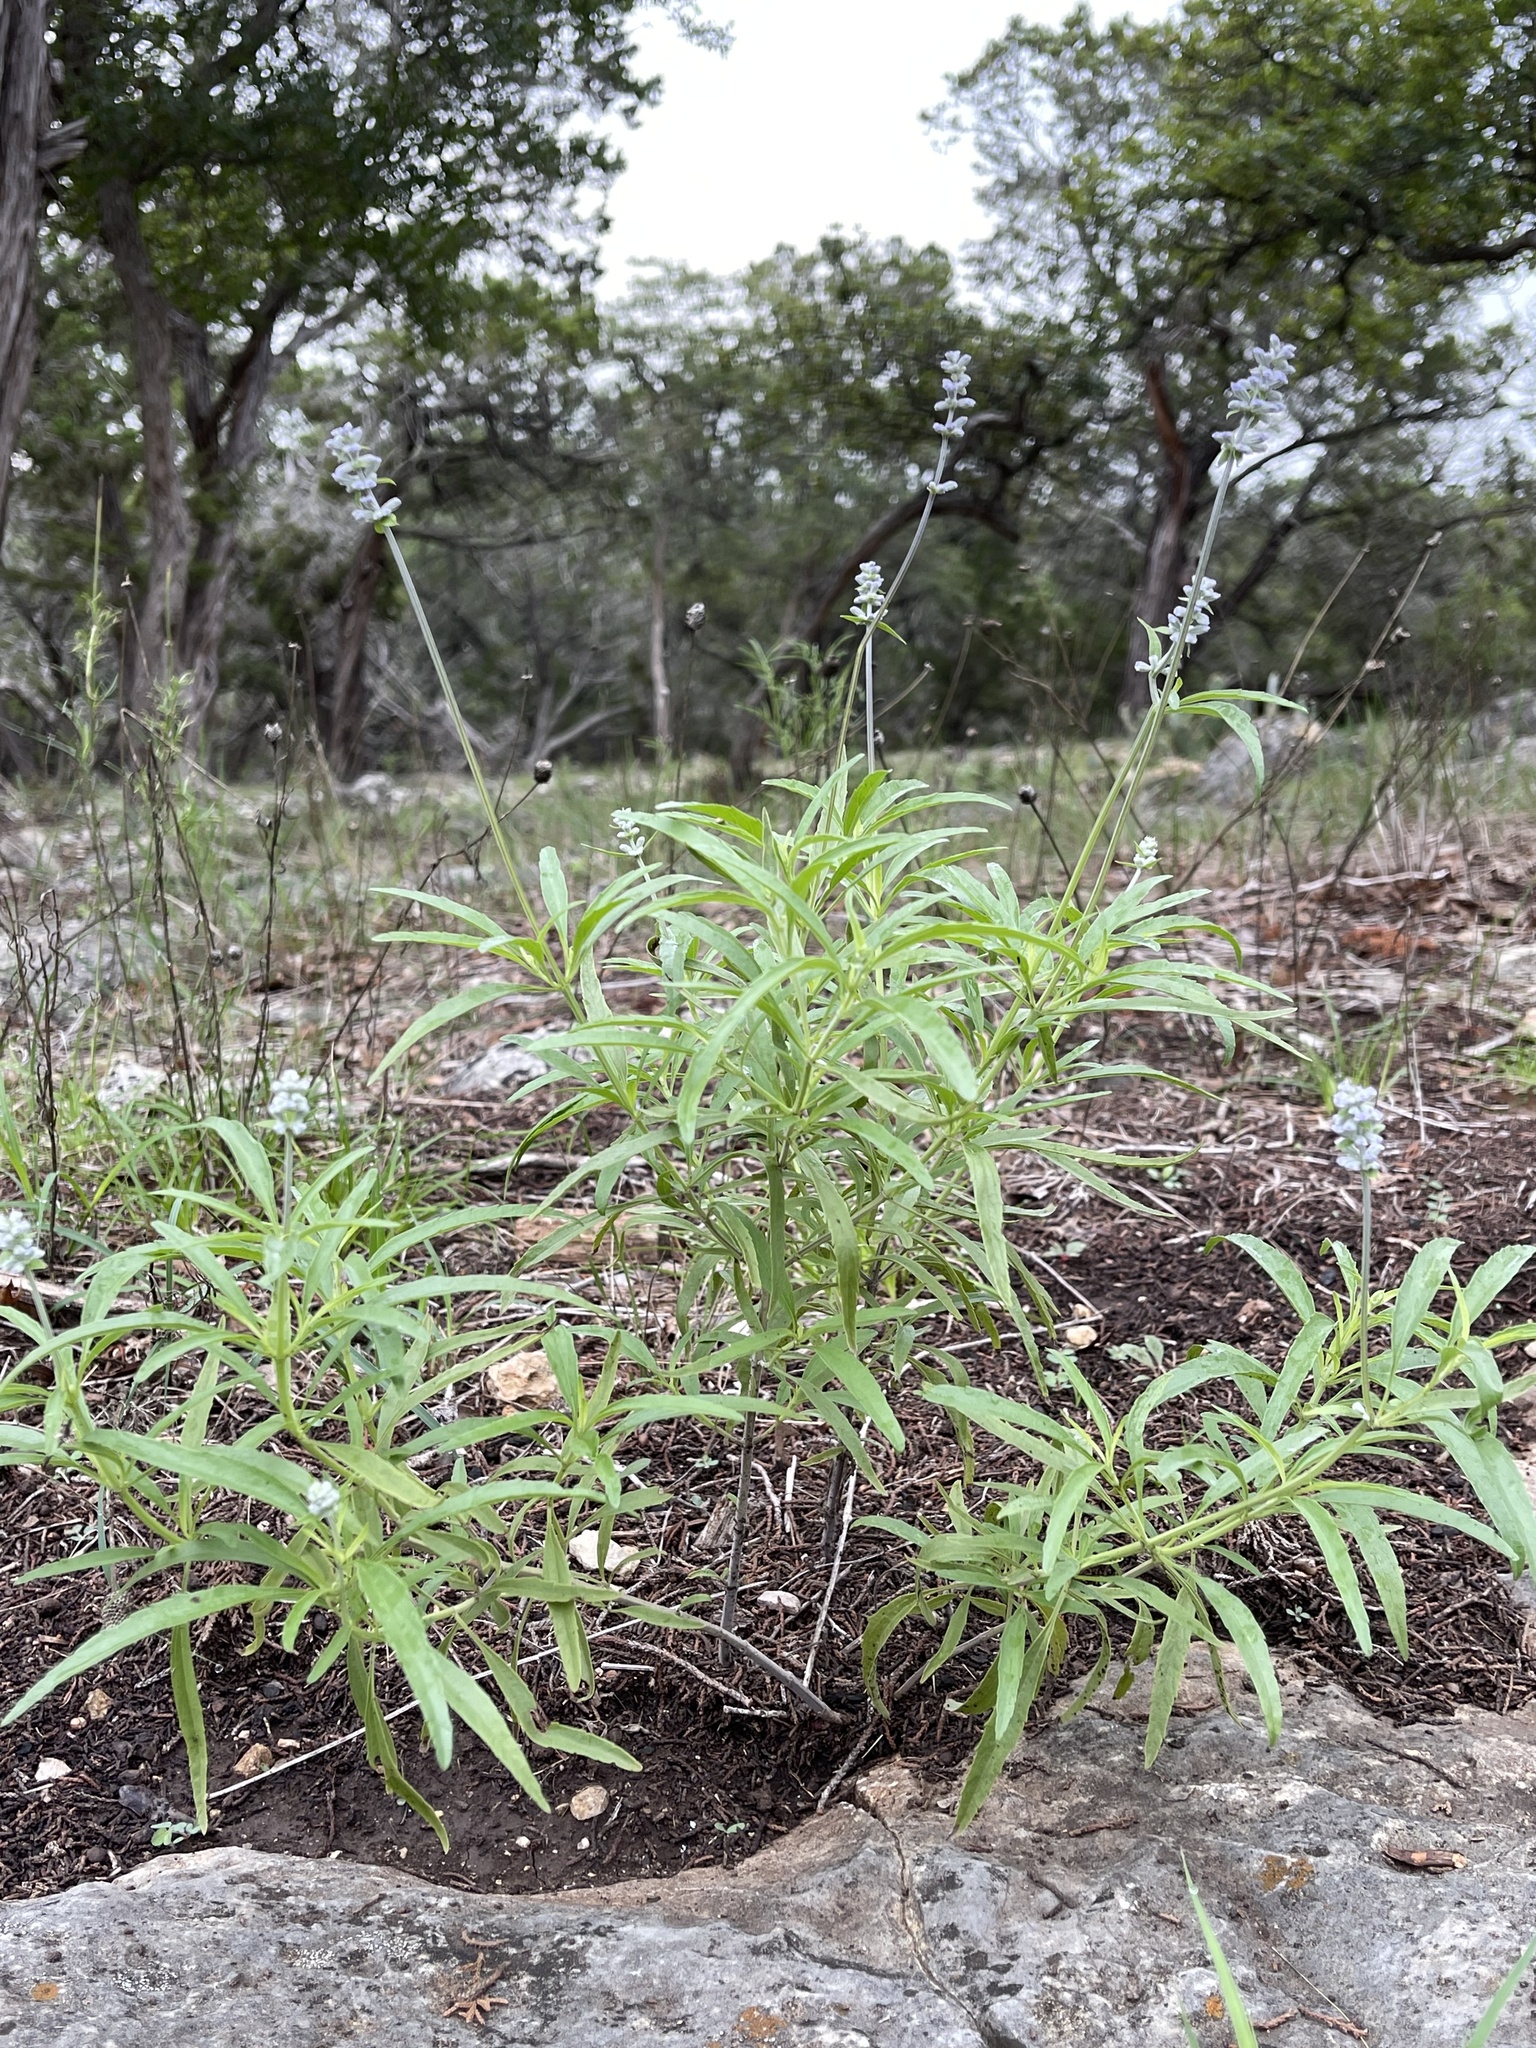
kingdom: Plantae
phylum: Tracheophyta
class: Magnoliopsida
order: Lamiales
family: Lamiaceae
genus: Salvia
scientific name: Salvia farinacea
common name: Mealy sage
